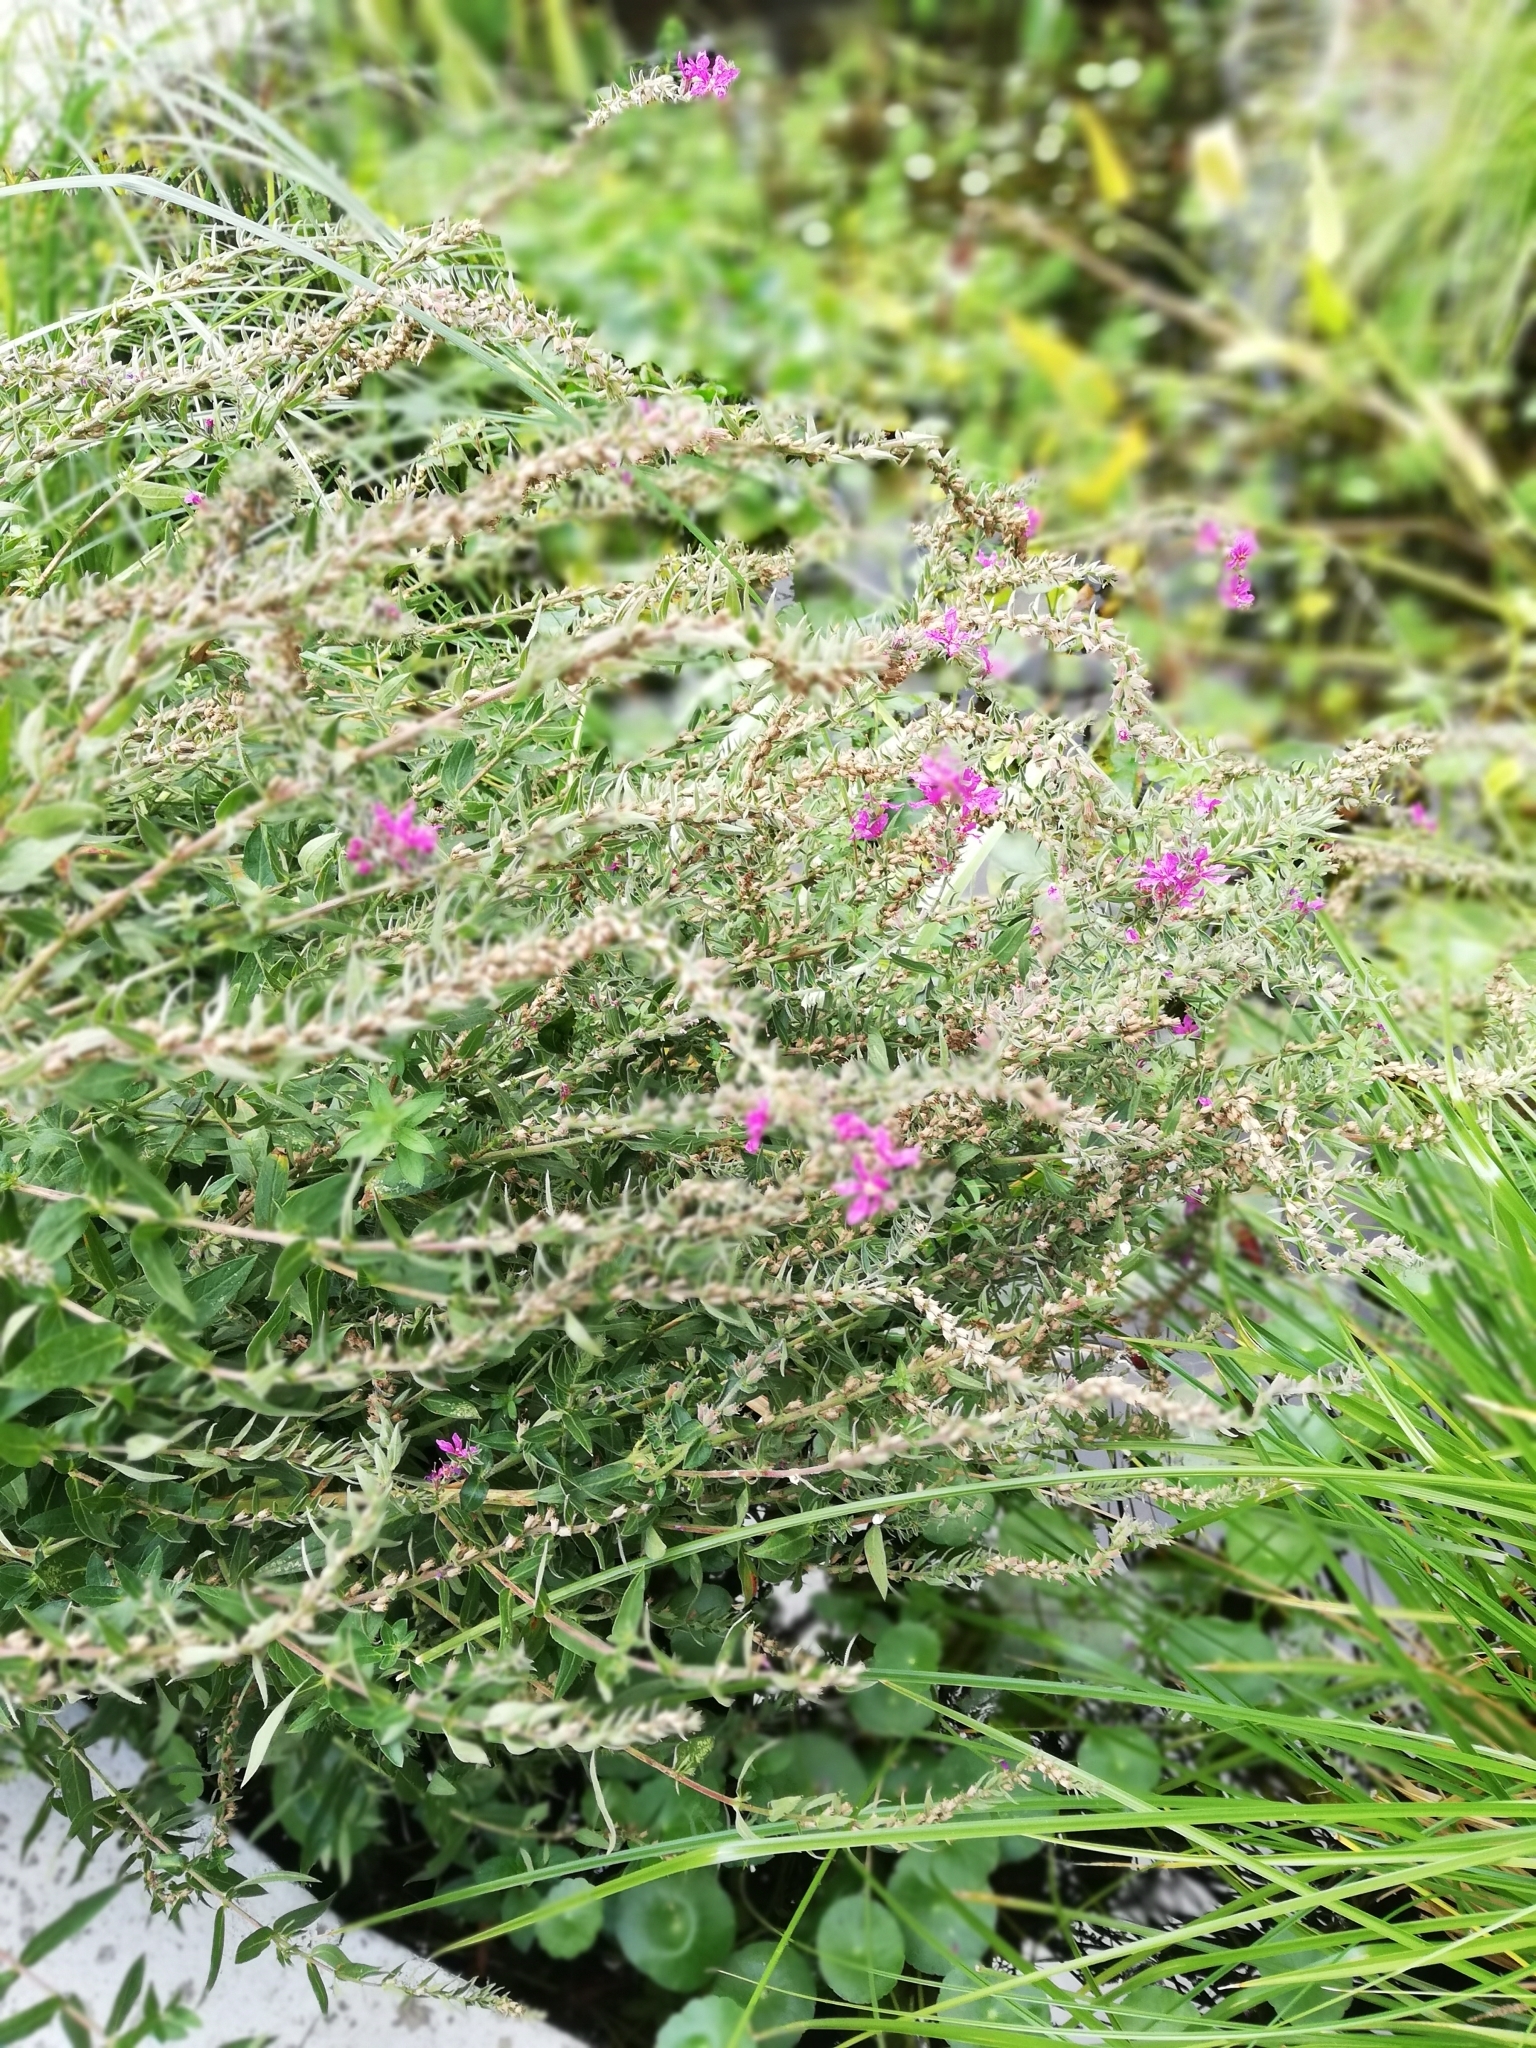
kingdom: Plantae
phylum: Tracheophyta
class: Magnoliopsida
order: Myrtales
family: Lythraceae
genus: Lythrum
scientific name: Lythrum salicaria
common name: Purple loosestrife
